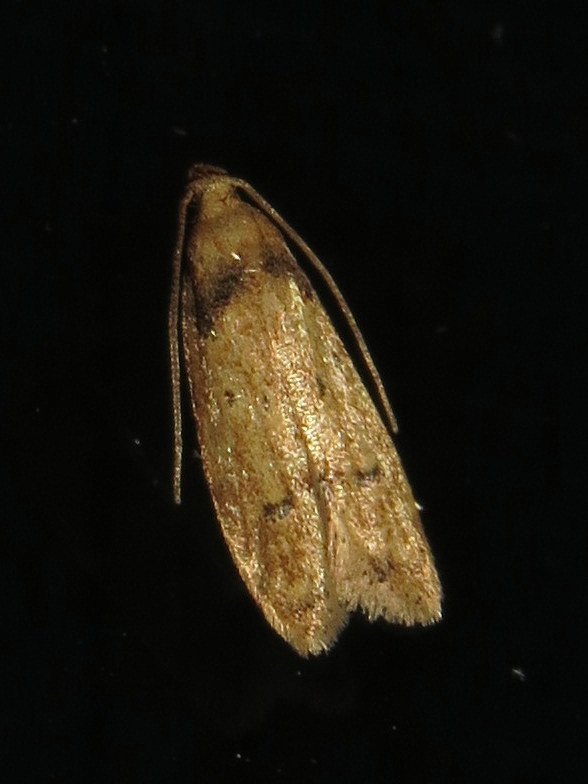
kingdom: Animalia
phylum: Arthropoda
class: Insecta
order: Lepidoptera
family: Autostichidae
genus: Gerdana
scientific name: Gerdana caritella
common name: Gerdana moth
